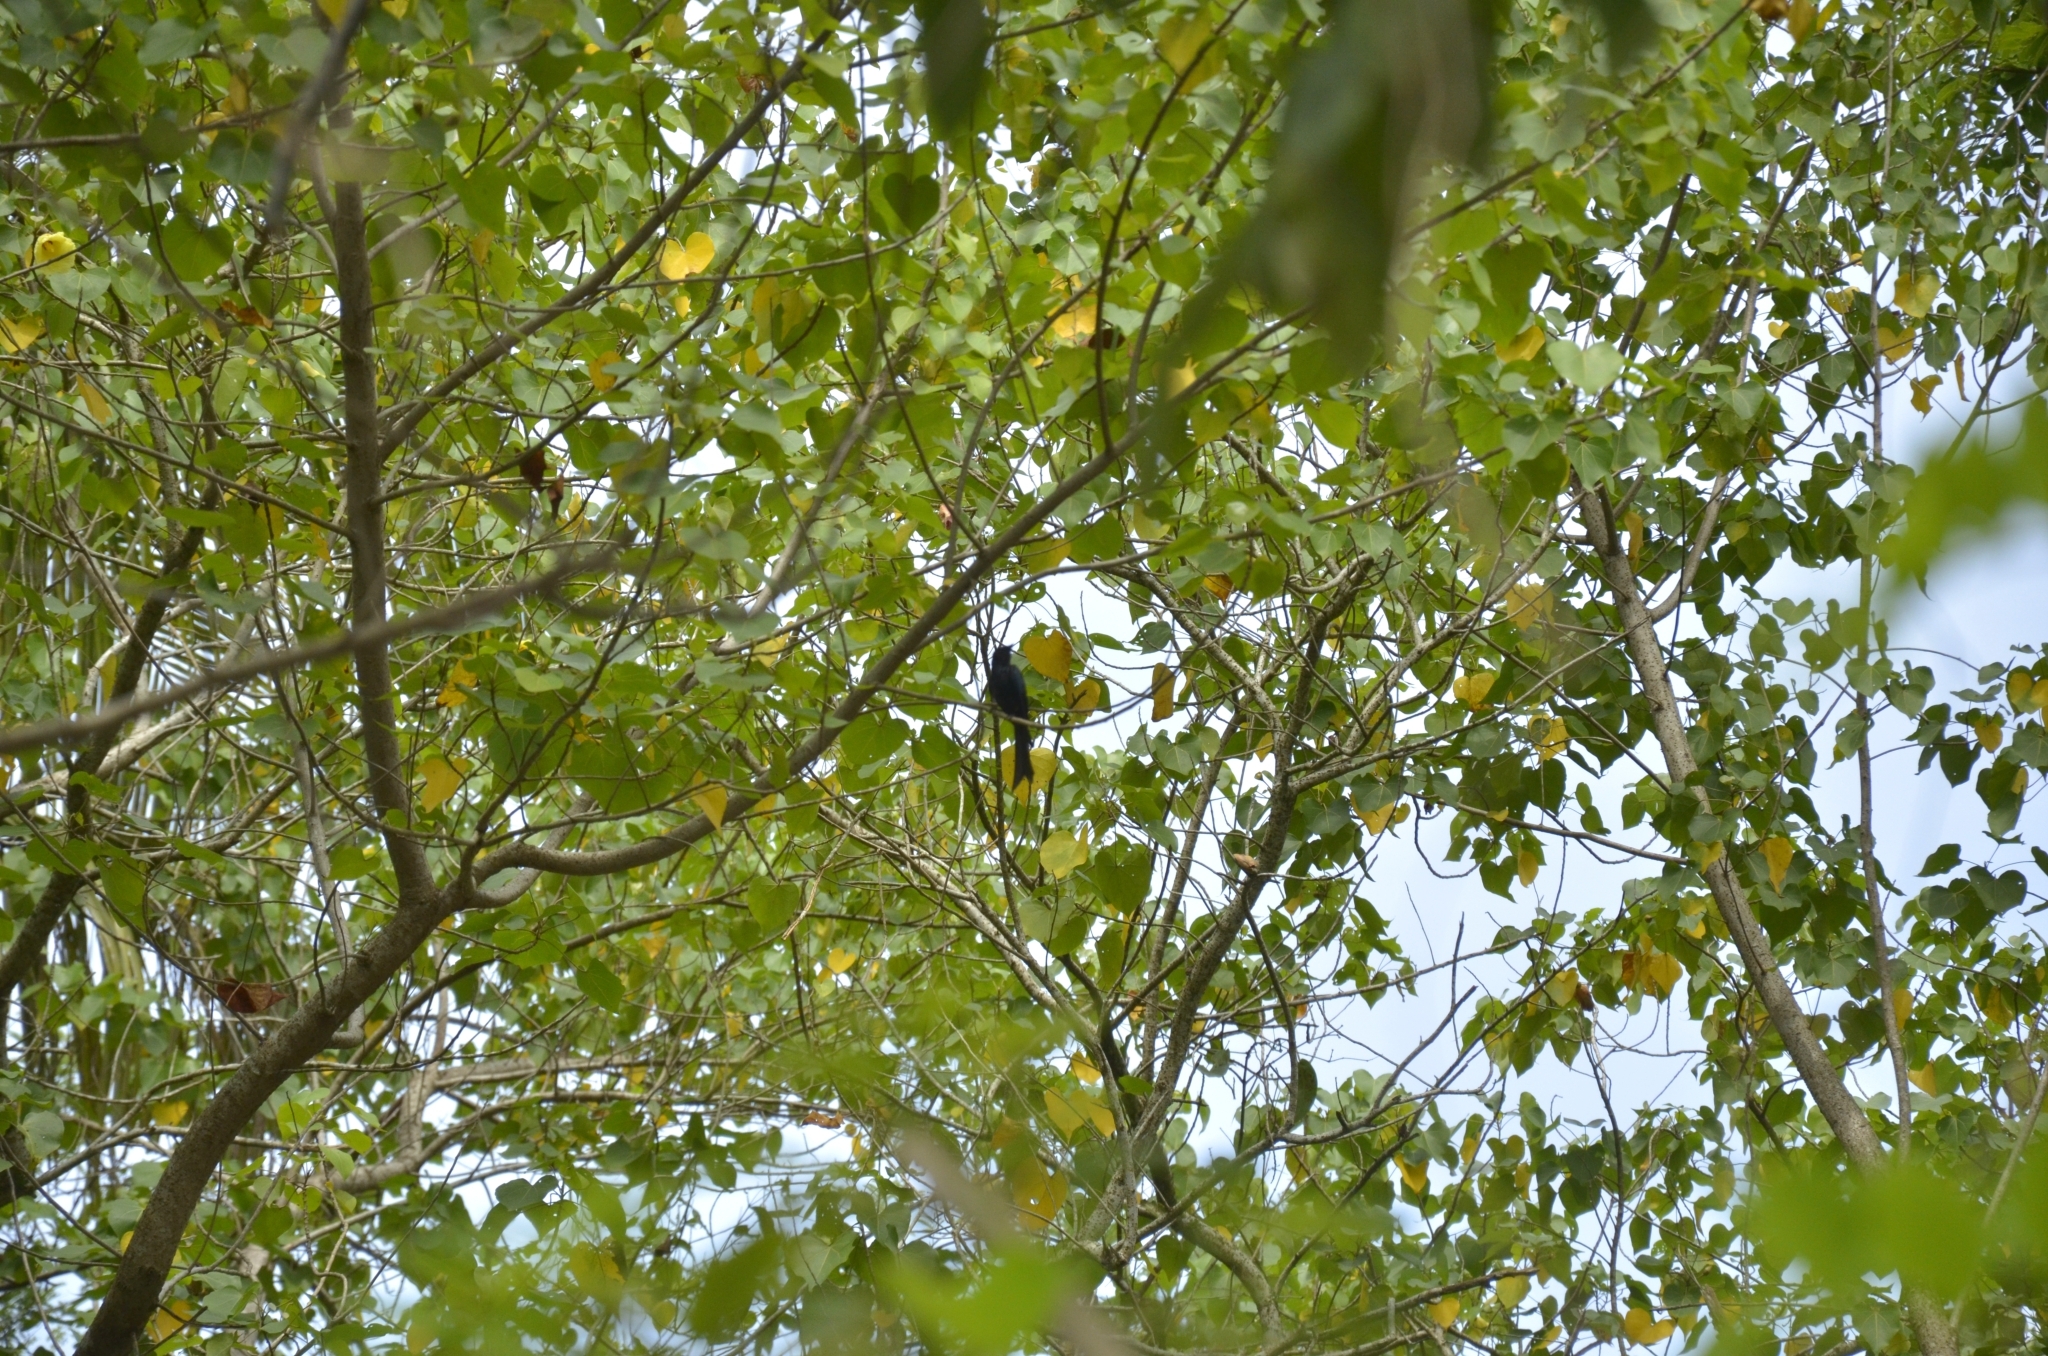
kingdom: Plantae
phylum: Tracheophyta
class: Magnoliopsida
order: Malvales
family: Malvaceae
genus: Thespesia
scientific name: Thespesia populnea
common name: Seaside mahoe
